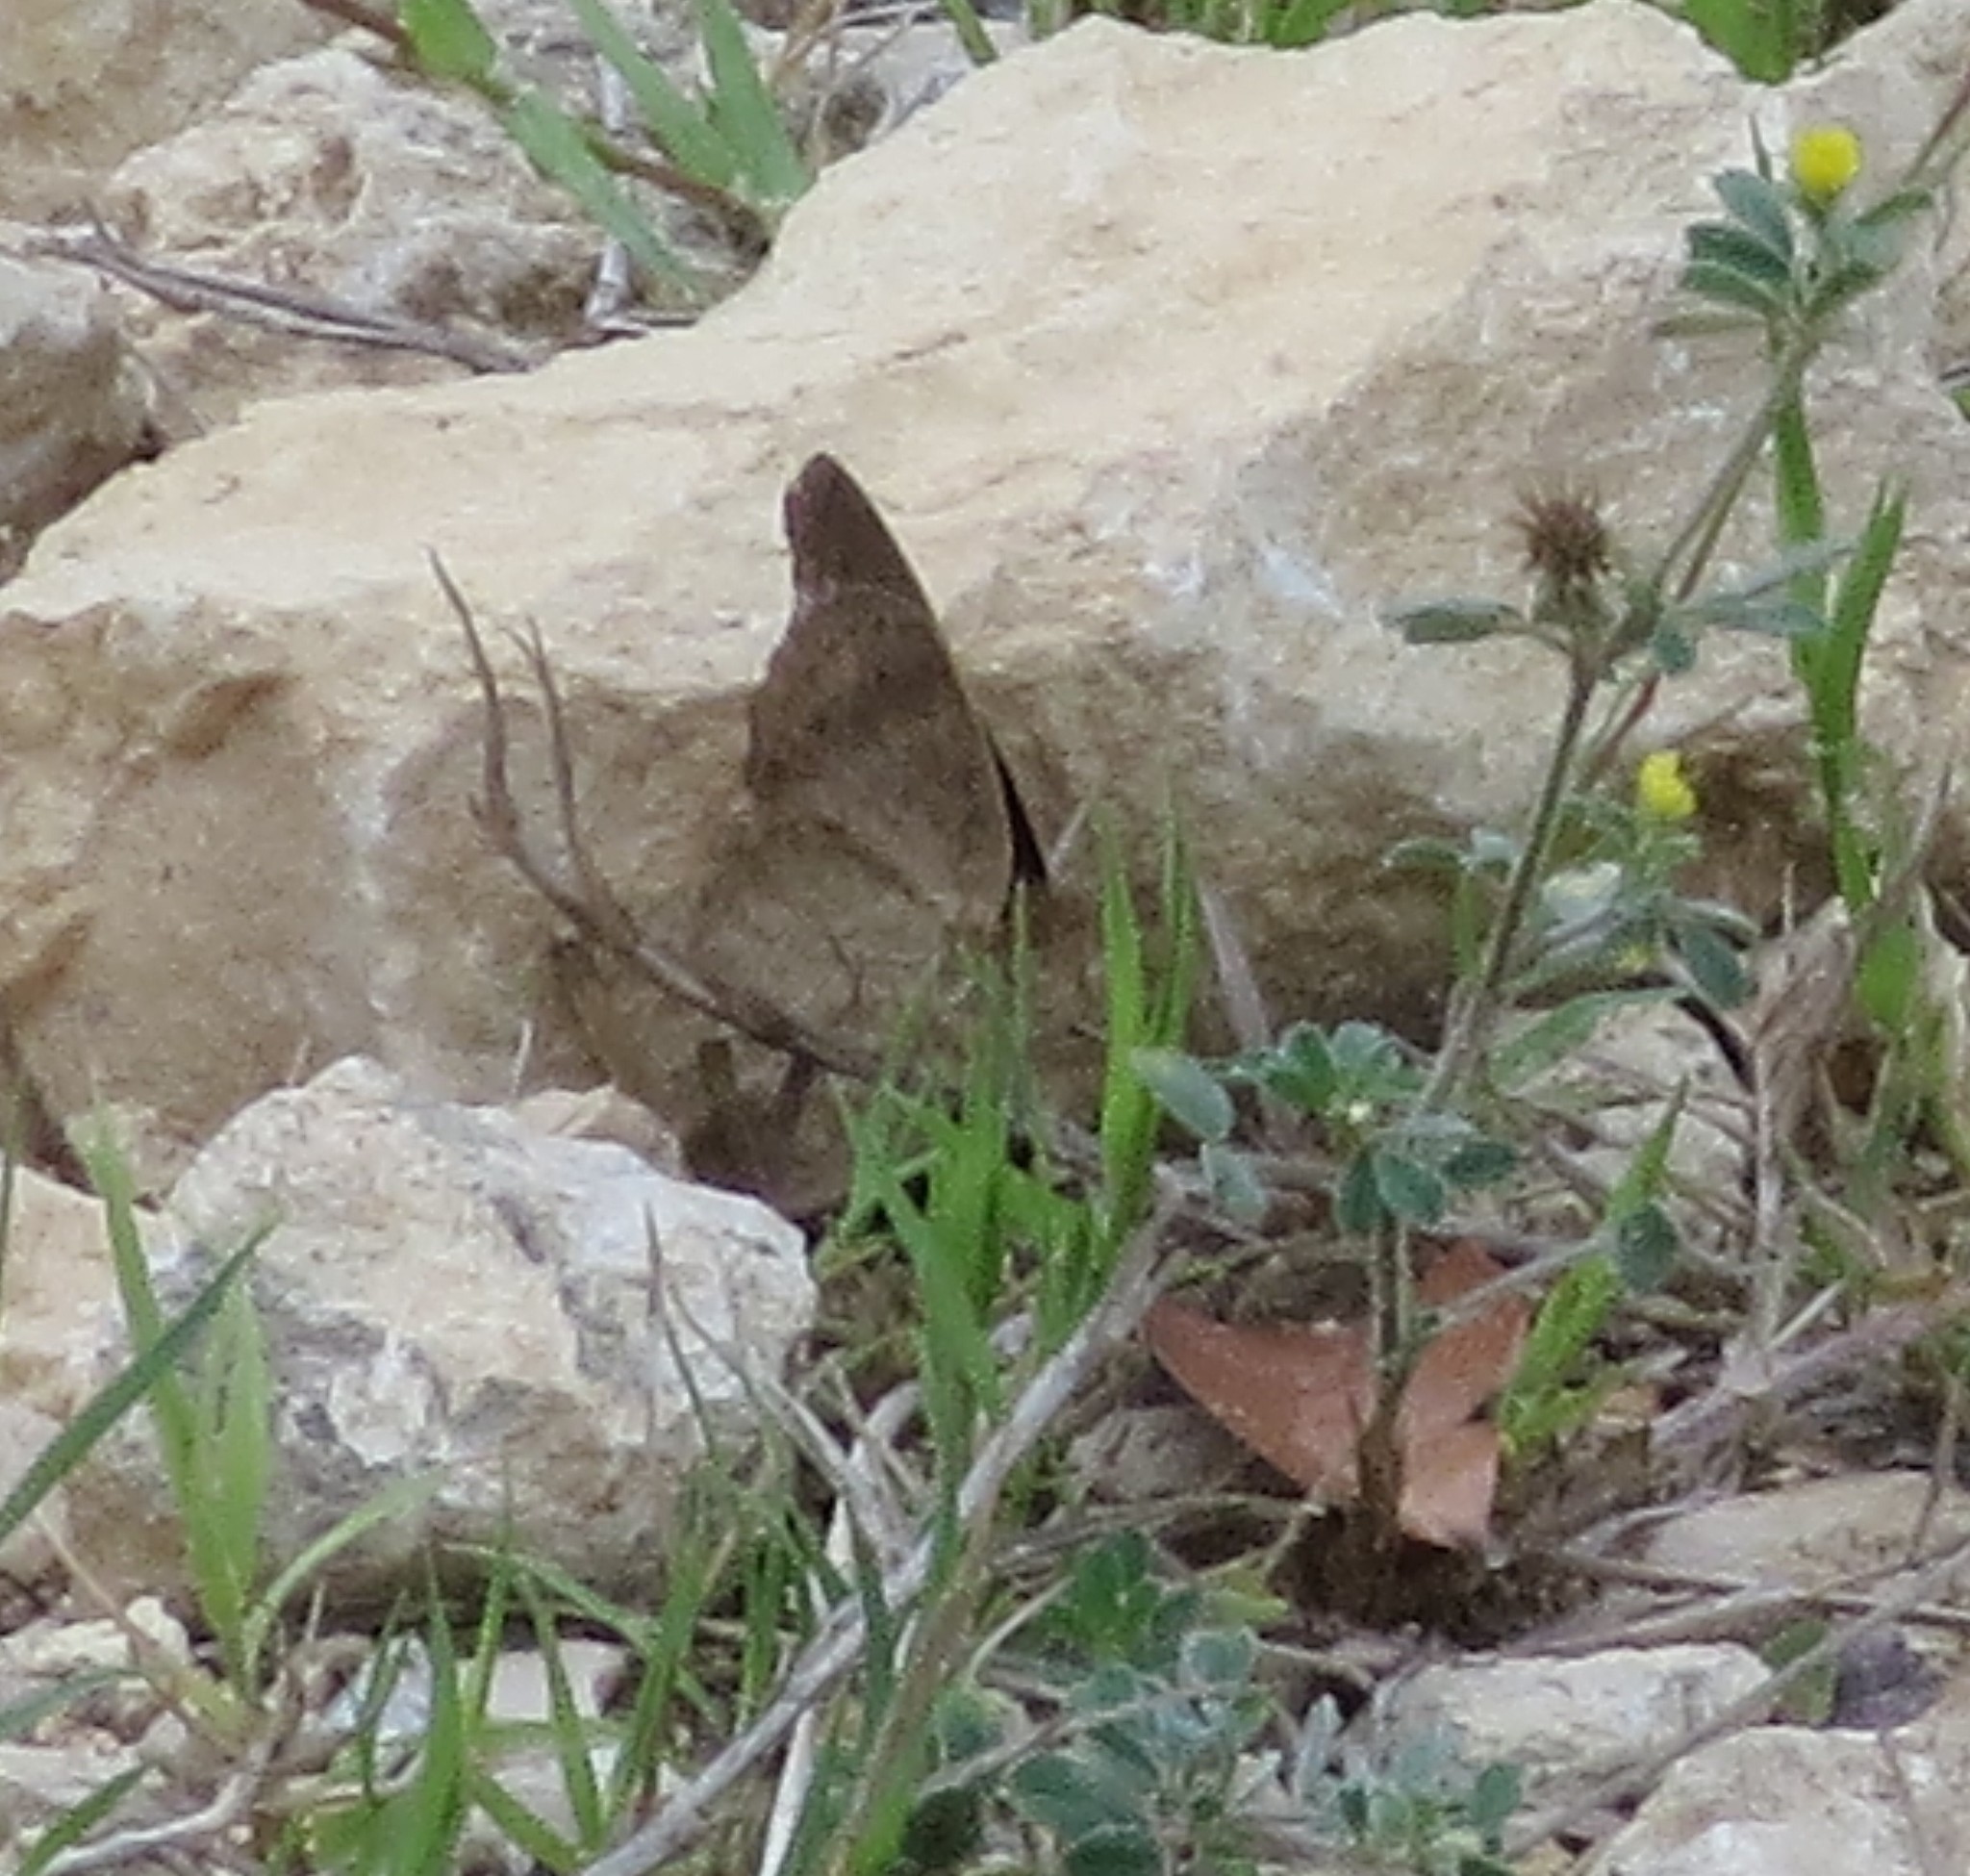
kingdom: Animalia
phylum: Arthropoda
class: Insecta
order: Lepidoptera
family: Nymphalidae
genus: Junonia
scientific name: Junonia coenia
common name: Common buckeye
